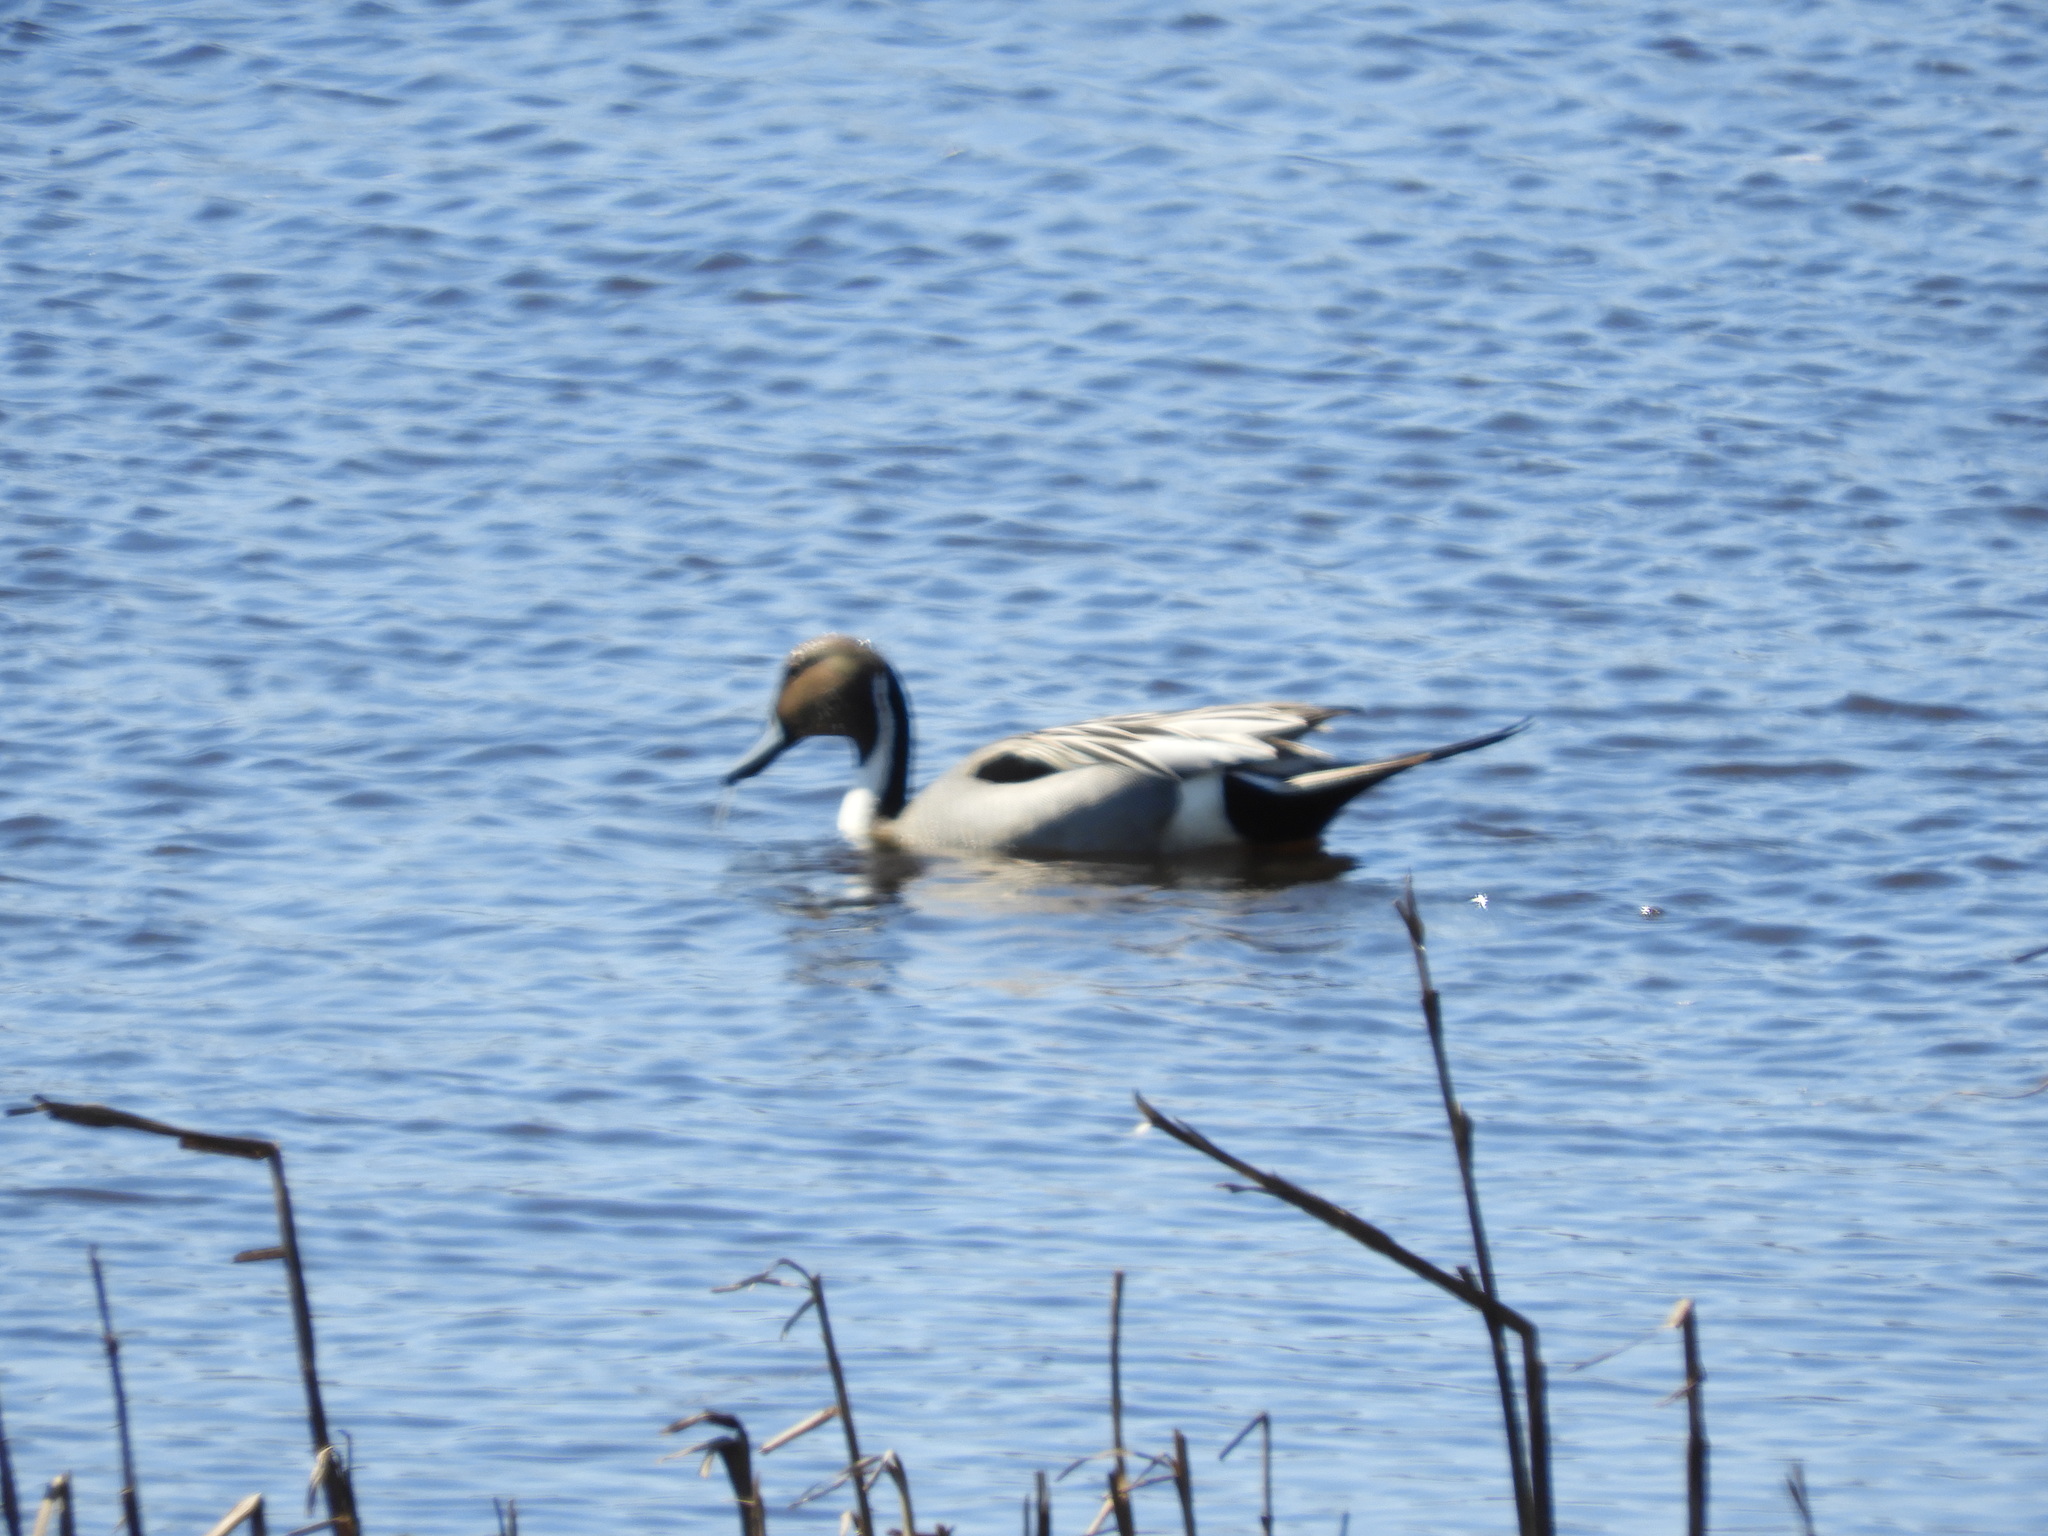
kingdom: Animalia
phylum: Chordata
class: Aves
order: Anseriformes
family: Anatidae
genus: Anas
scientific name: Anas acuta
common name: Northern pintail
